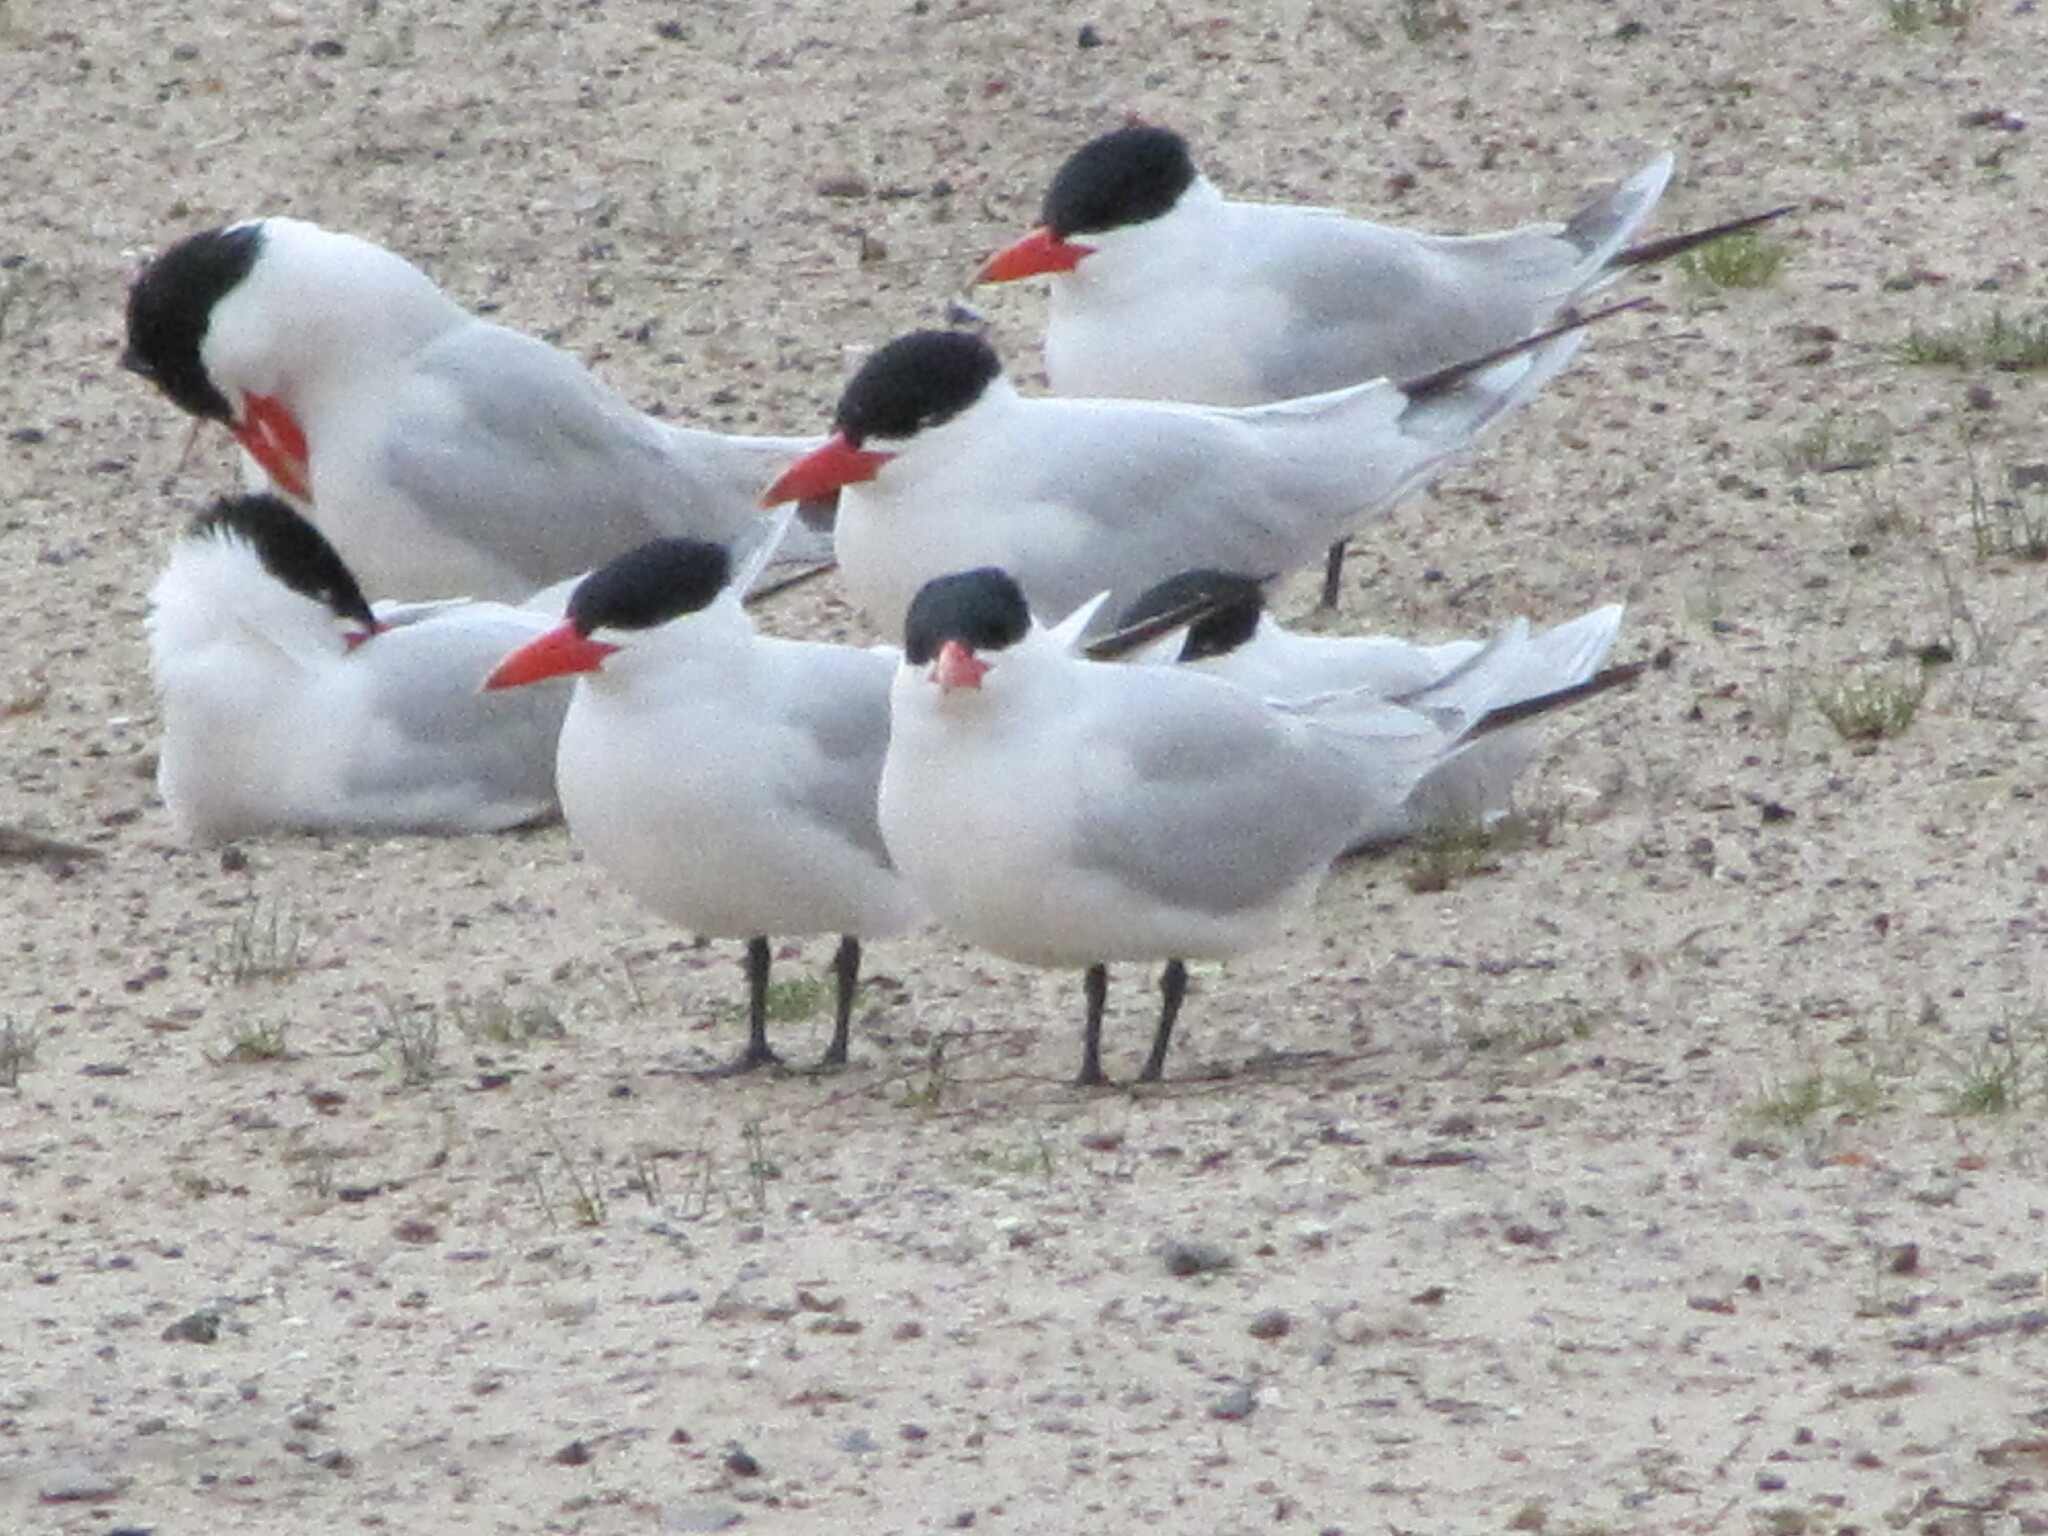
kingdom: Animalia
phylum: Chordata
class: Aves
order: Charadriiformes
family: Laridae
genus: Hydroprogne
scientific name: Hydroprogne caspia
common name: Caspian tern
